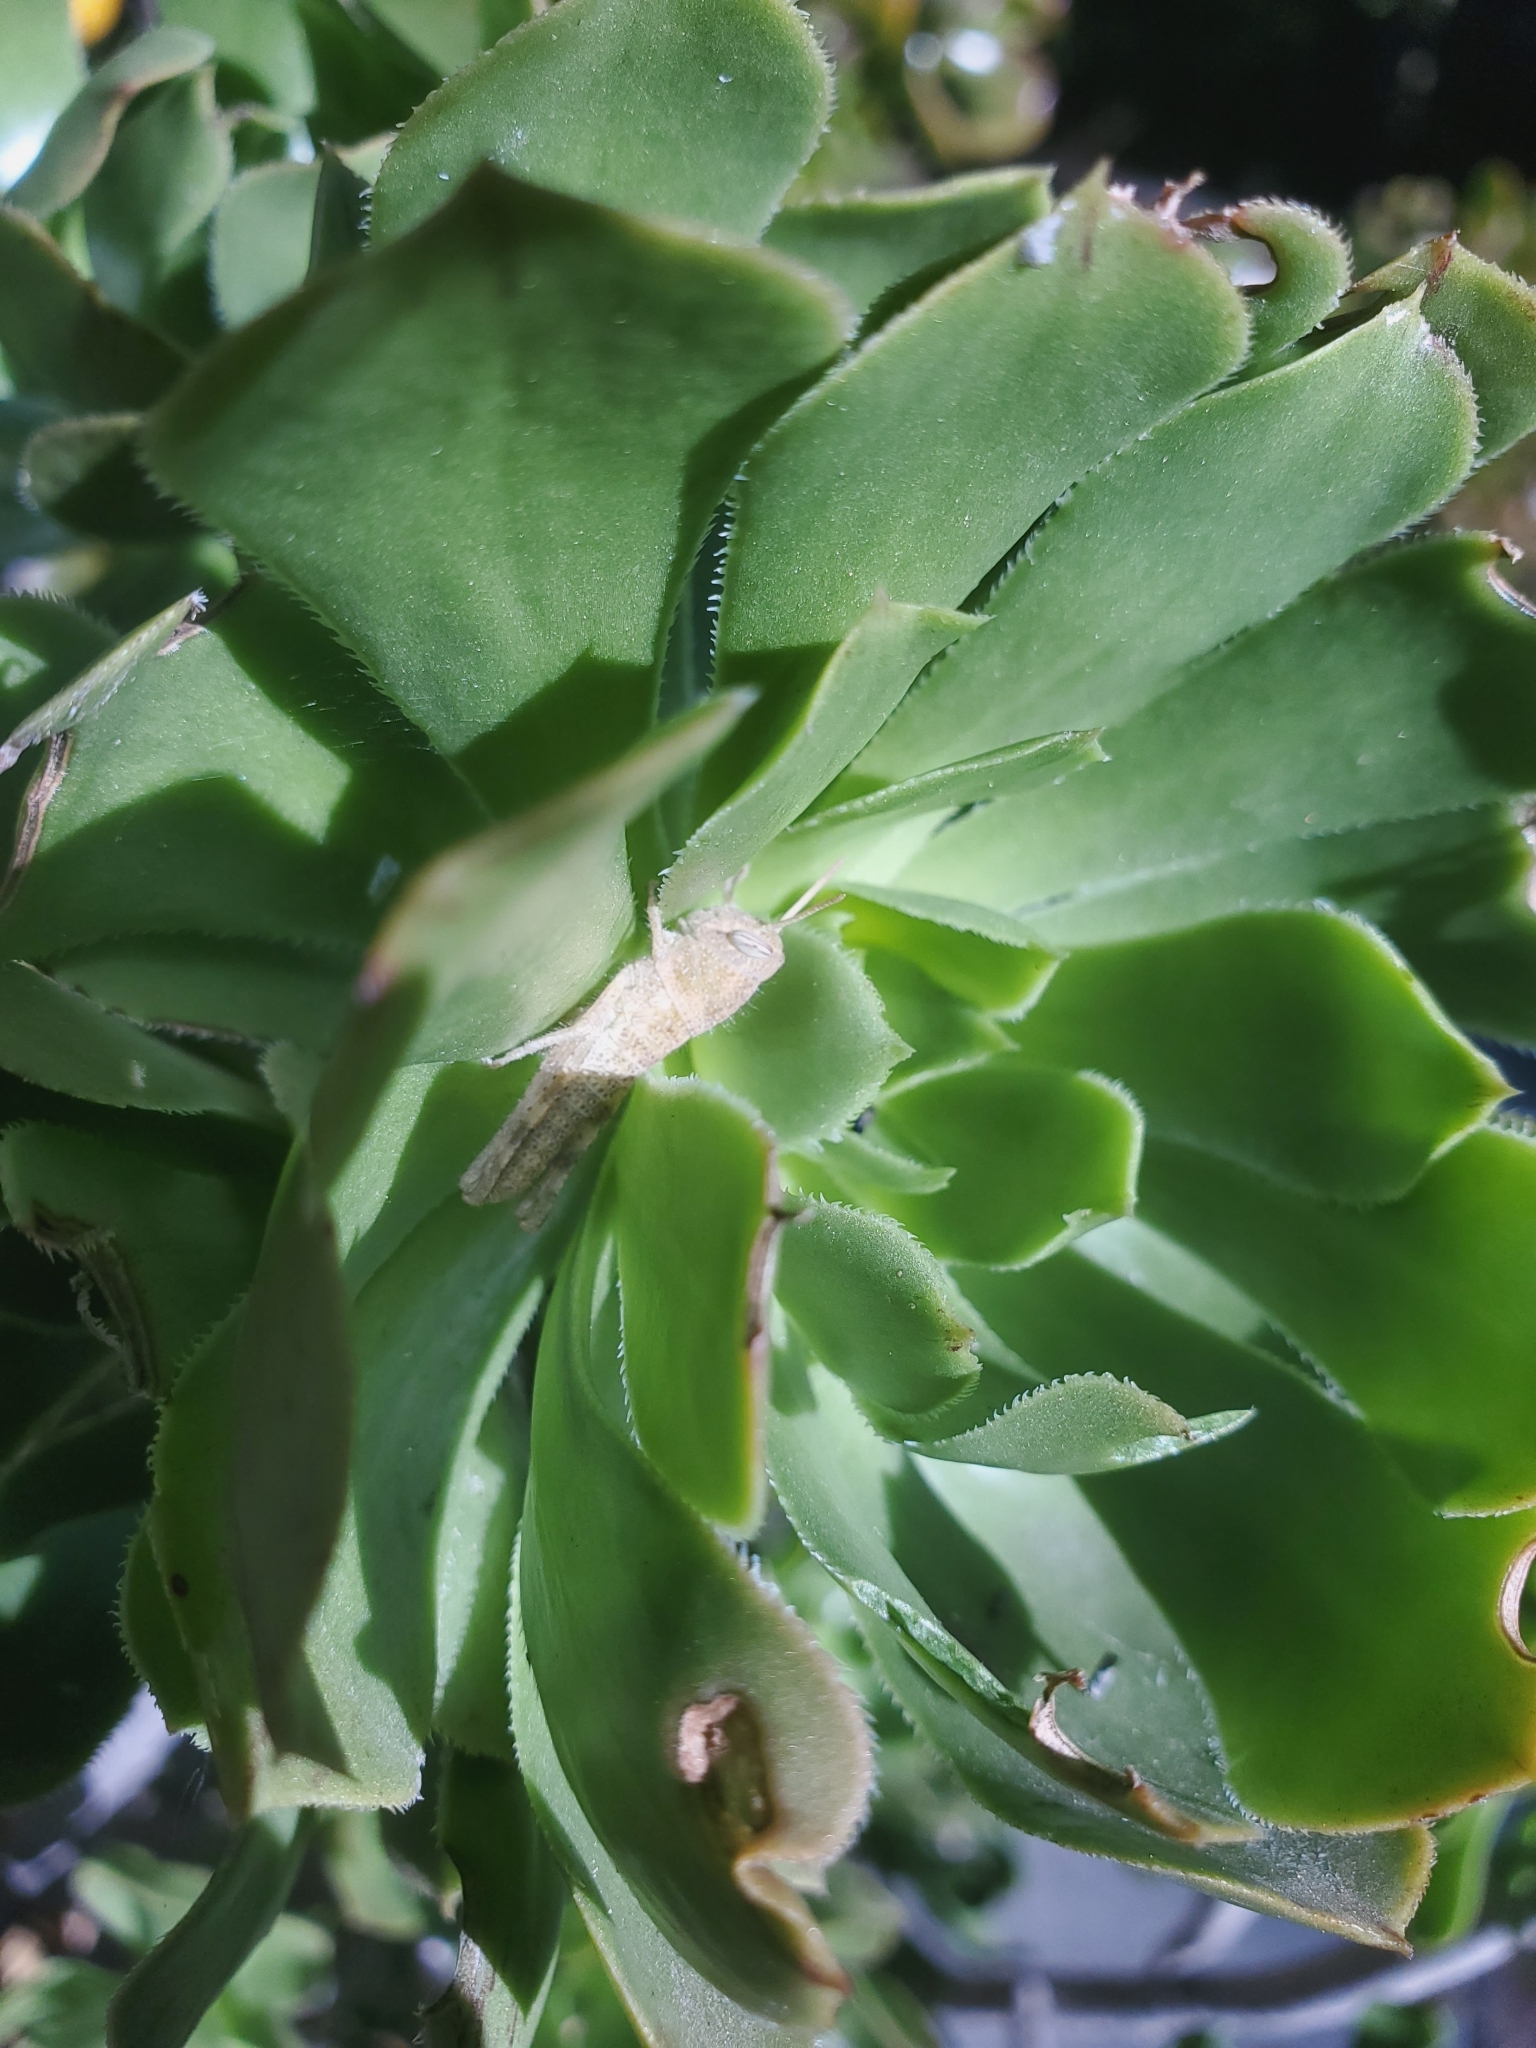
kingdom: Animalia
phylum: Arthropoda
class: Insecta
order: Orthoptera
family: Acrididae
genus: Schistocerca
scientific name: Schistocerca nitens
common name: Vagrant grasshopper
